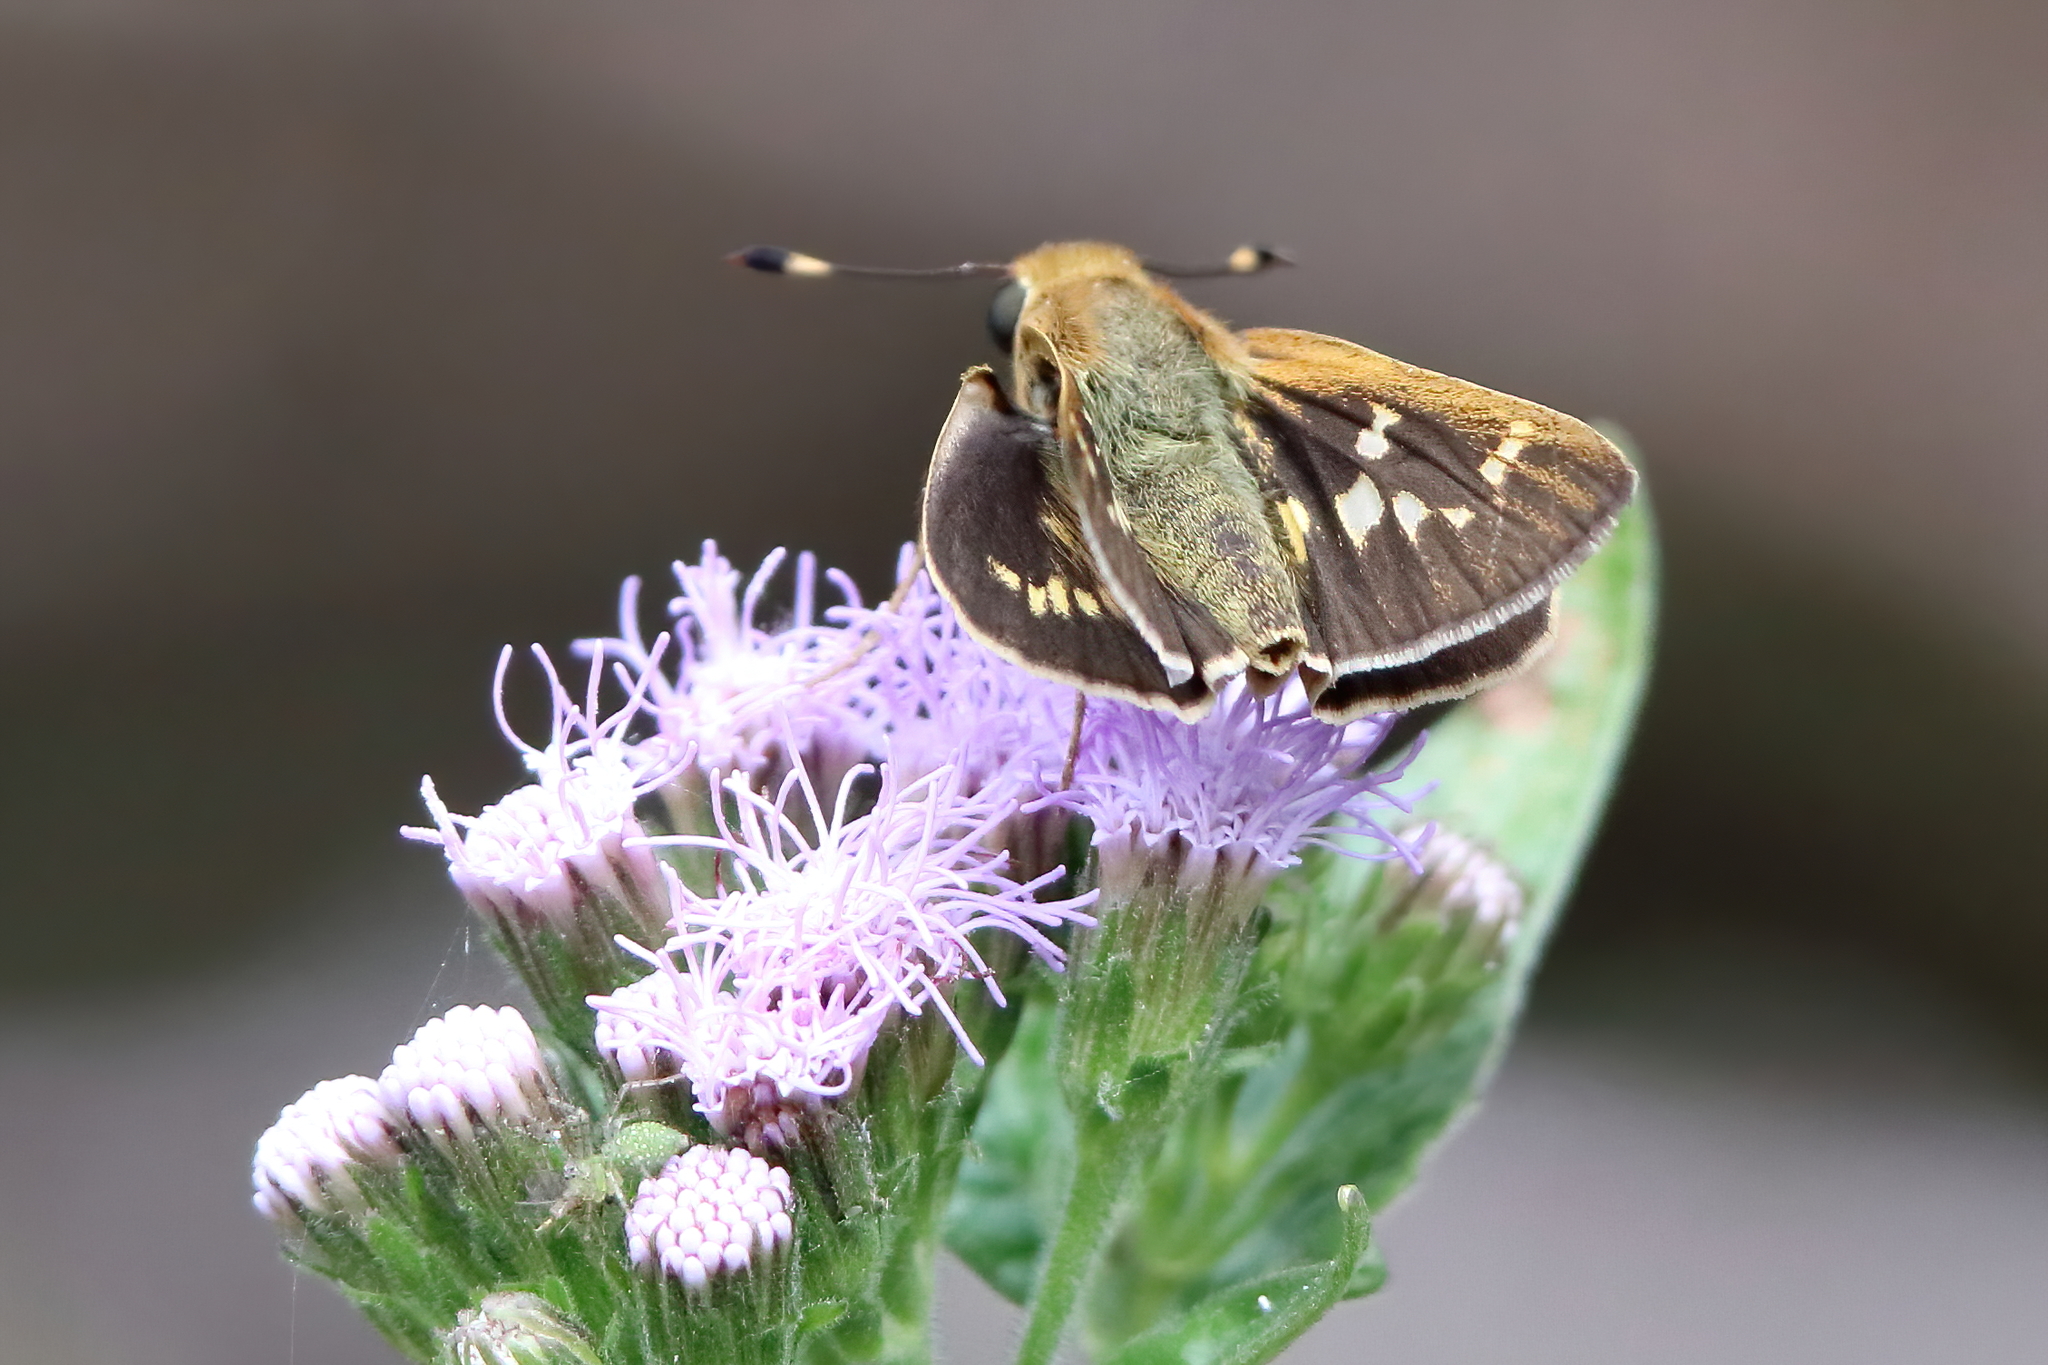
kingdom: Animalia
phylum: Arthropoda
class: Insecta
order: Lepidoptera
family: Hesperiidae
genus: Mellana
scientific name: Mellana eulogius
